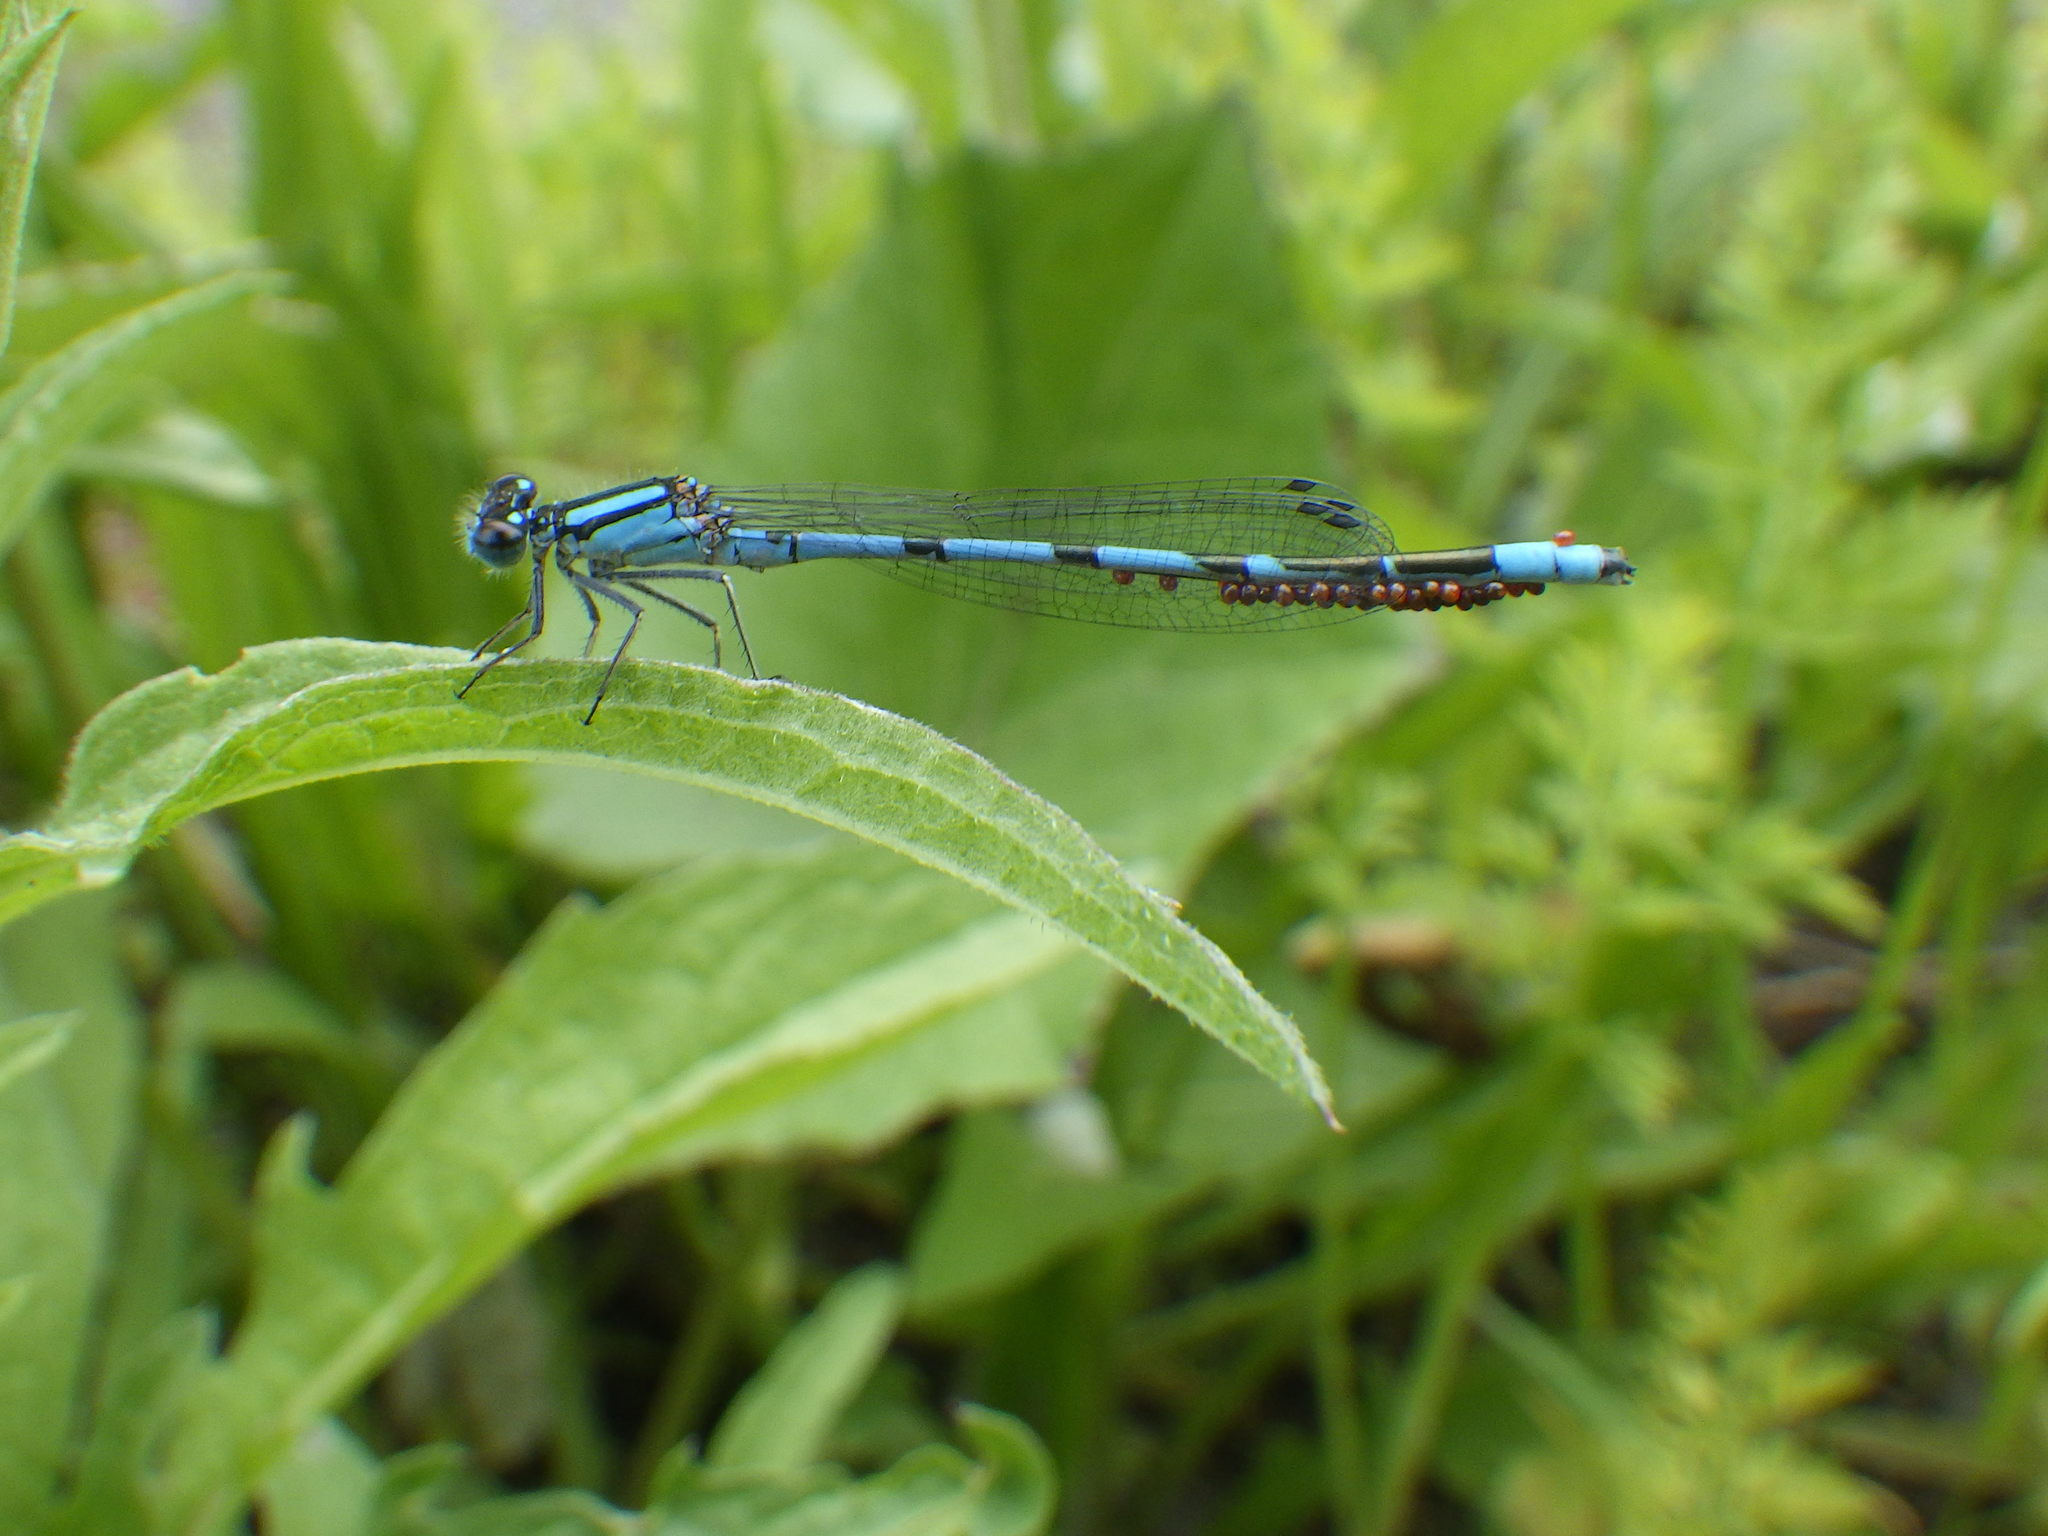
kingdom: Animalia
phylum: Arthropoda
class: Insecta
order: Odonata
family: Coenagrionidae
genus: Enallagma
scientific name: Enallagma ebrium
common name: Marsh bluet
